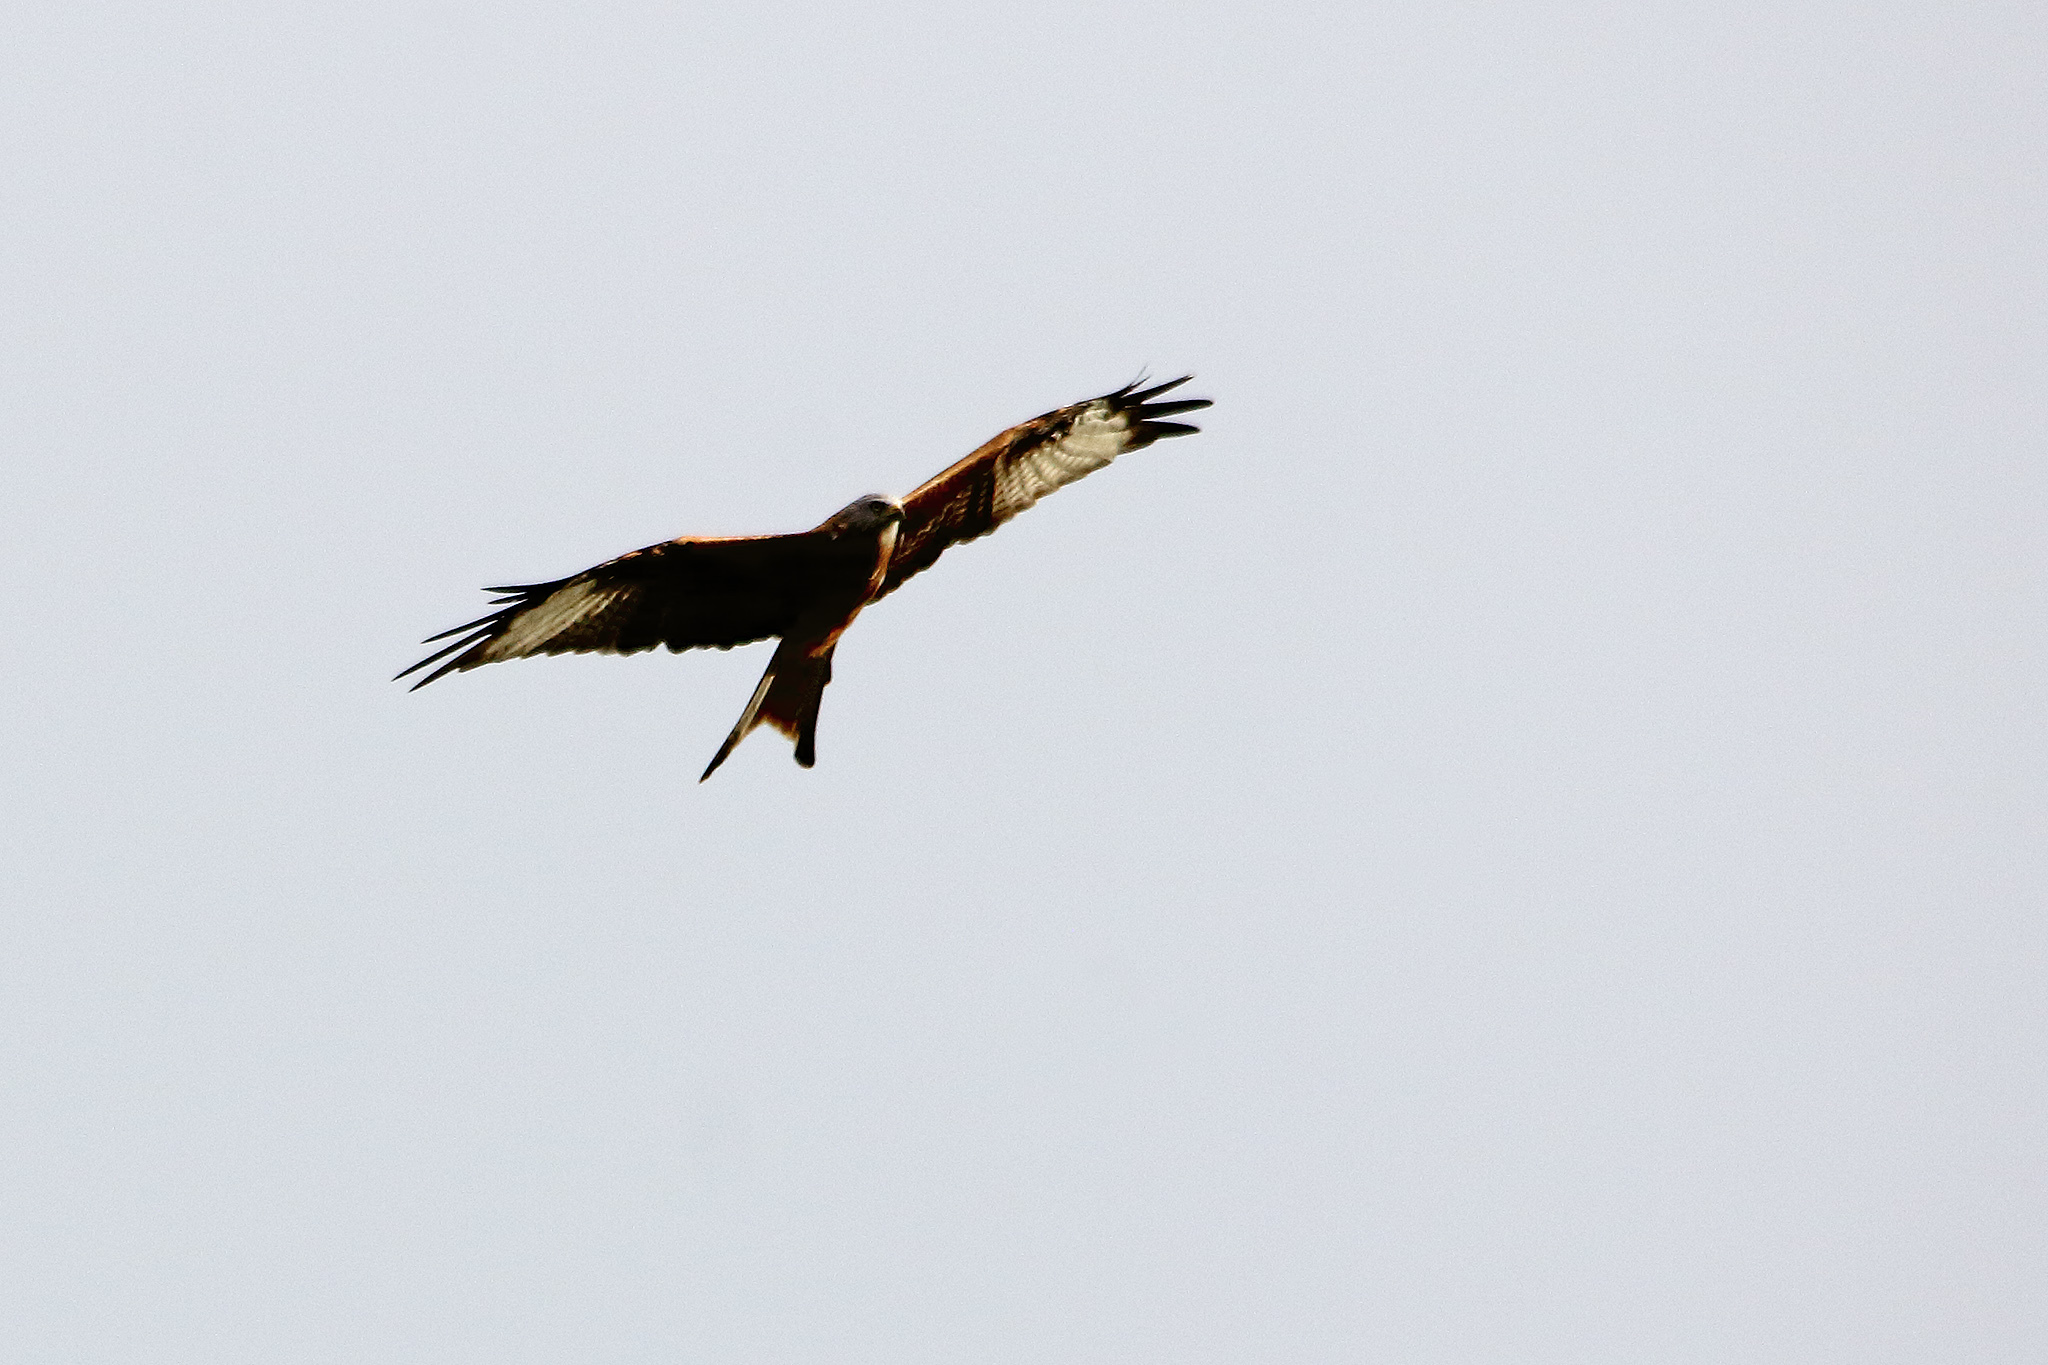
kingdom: Animalia
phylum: Chordata
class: Aves
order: Accipitriformes
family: Accipitridae
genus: Milvus
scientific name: Milvus milvus
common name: Red kite
